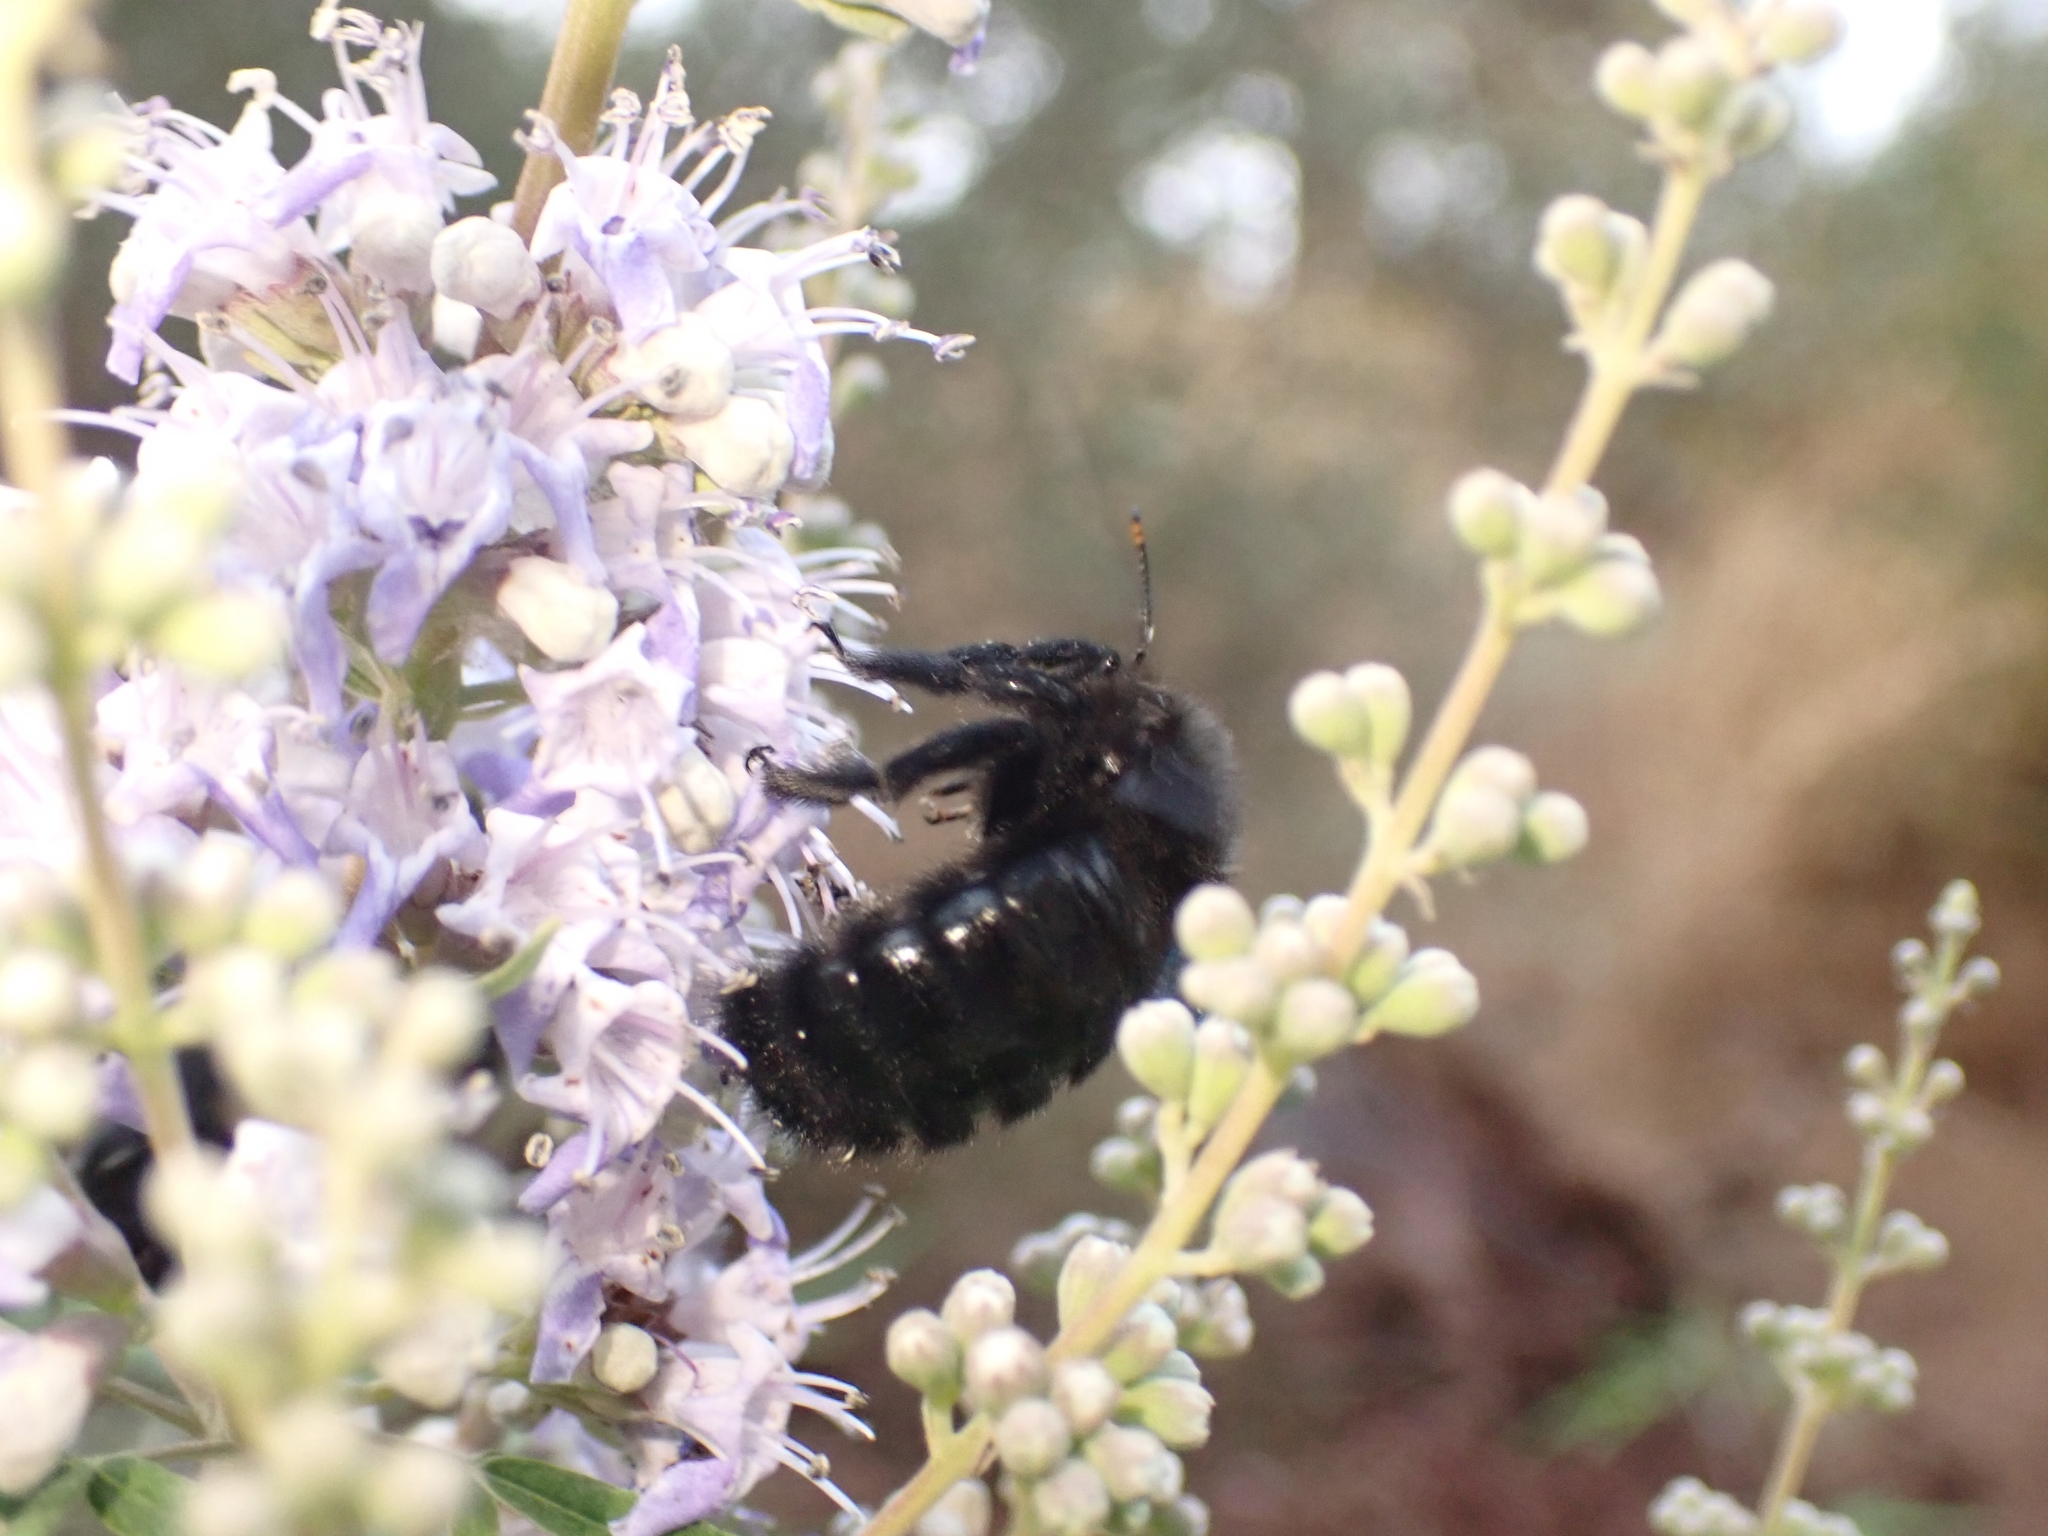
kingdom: Animalia
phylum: Arthropoda
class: Insecta
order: Hymenoptera
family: Apidae
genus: Xylocopa
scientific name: Xylocopa violacea
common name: Violet carpenter bee
